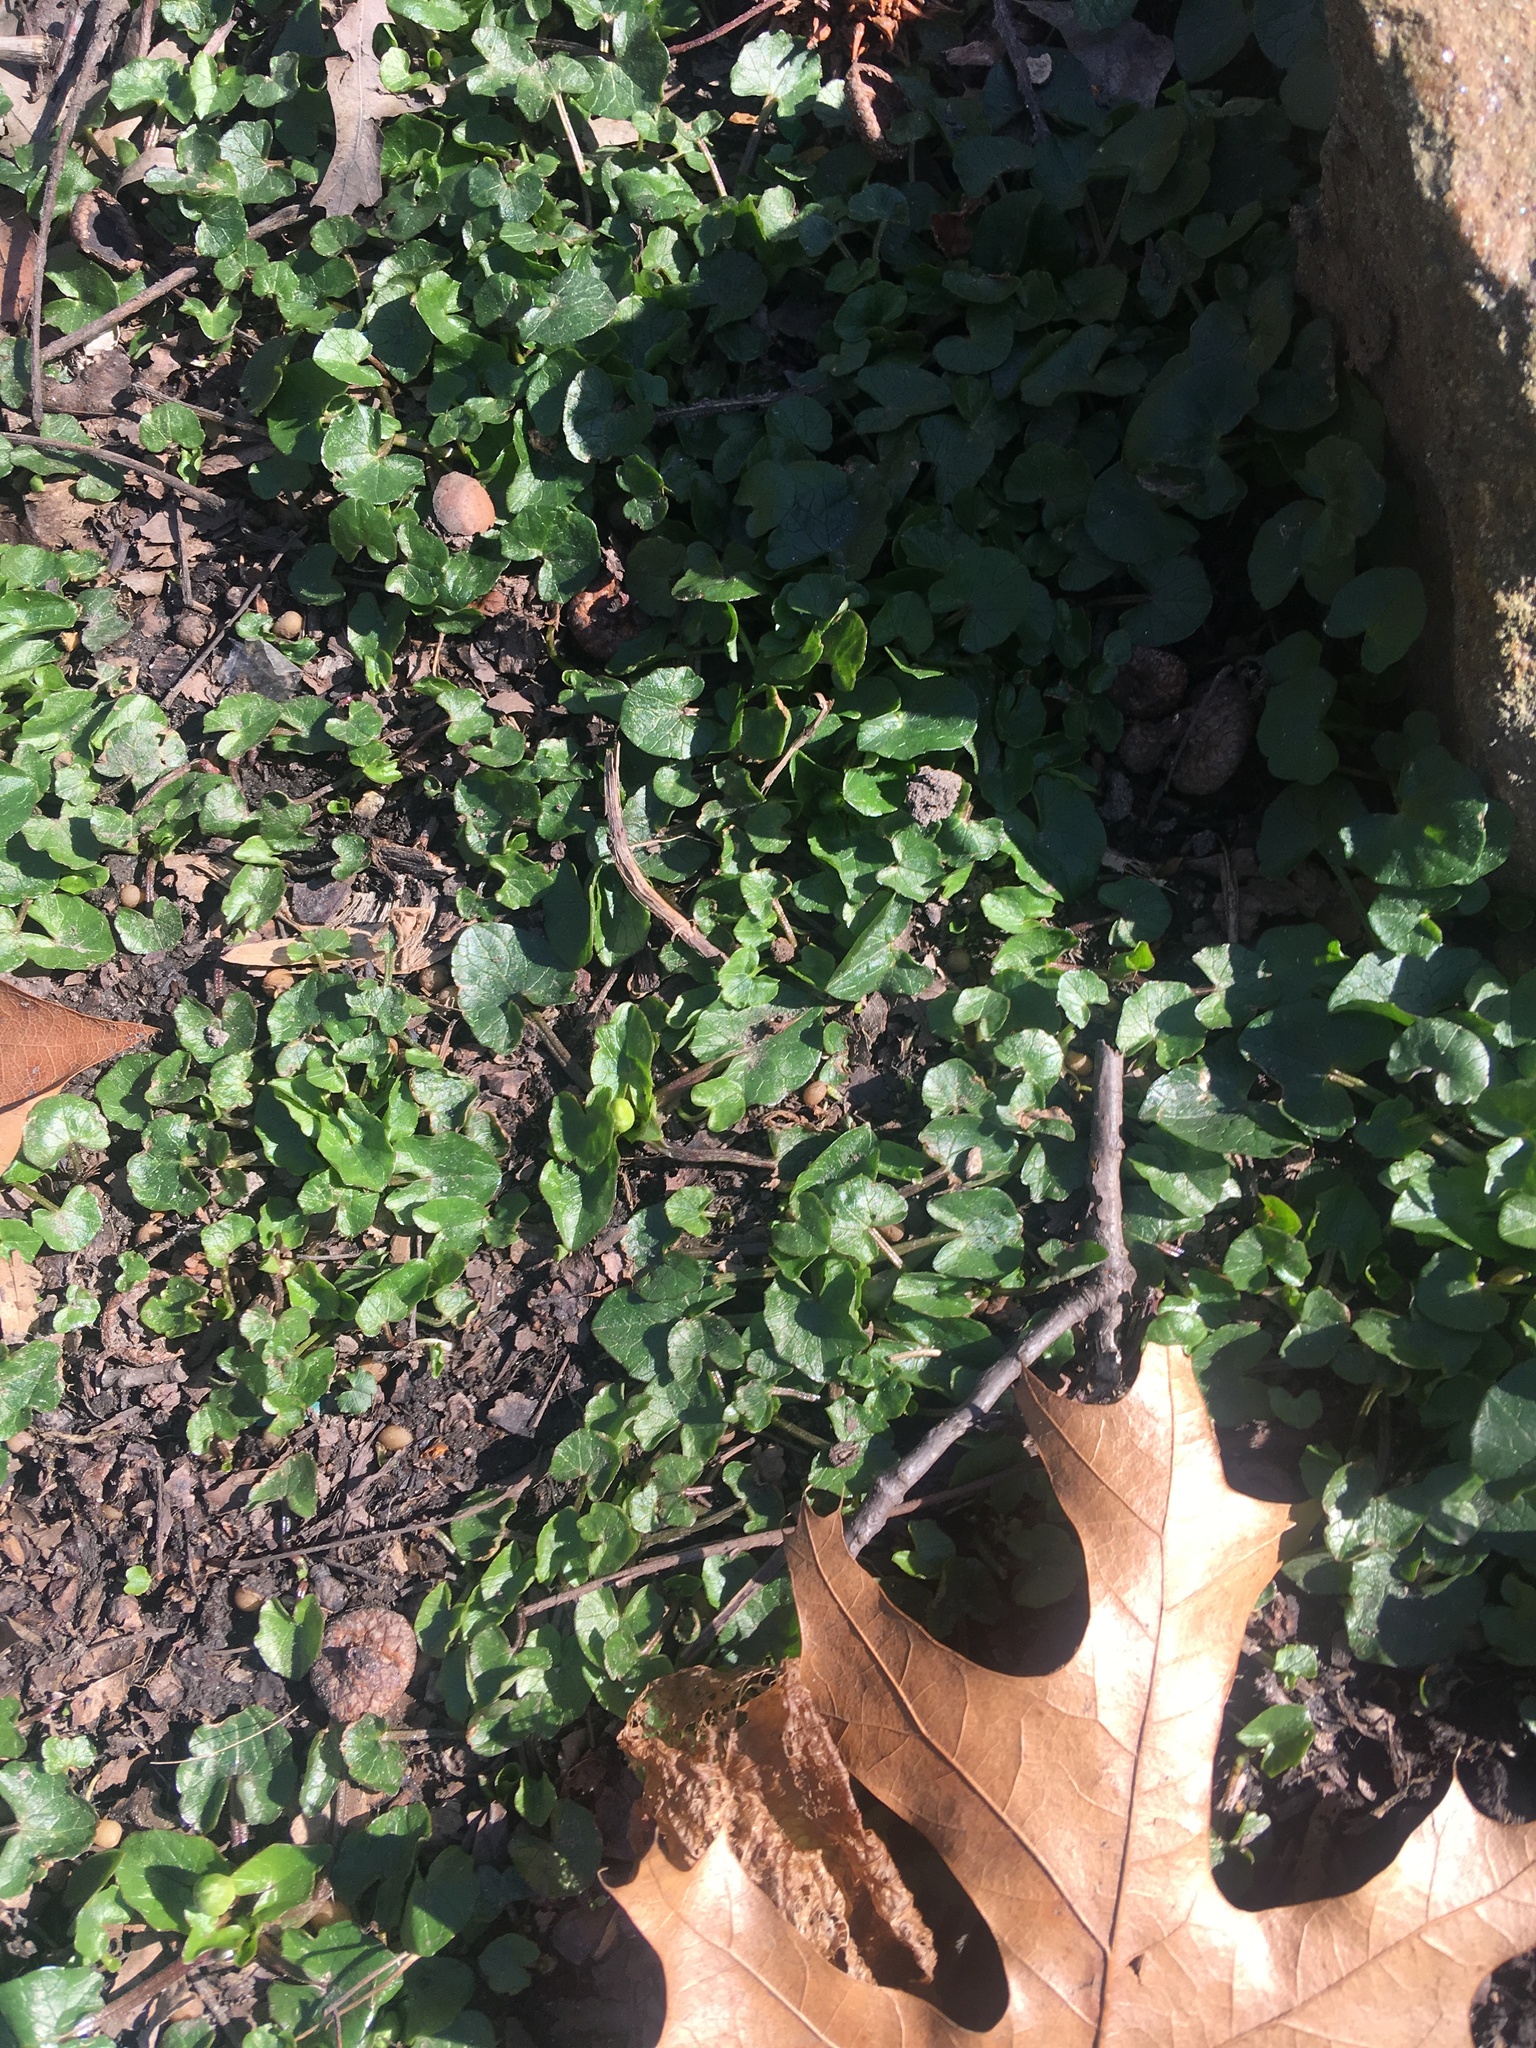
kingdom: Plantae
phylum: Tracheophyta
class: Magnoliopsida
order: Ranunculales
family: Ranunculaceae
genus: Ficaria
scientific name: Ficaria verna
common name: Lesser celandine
